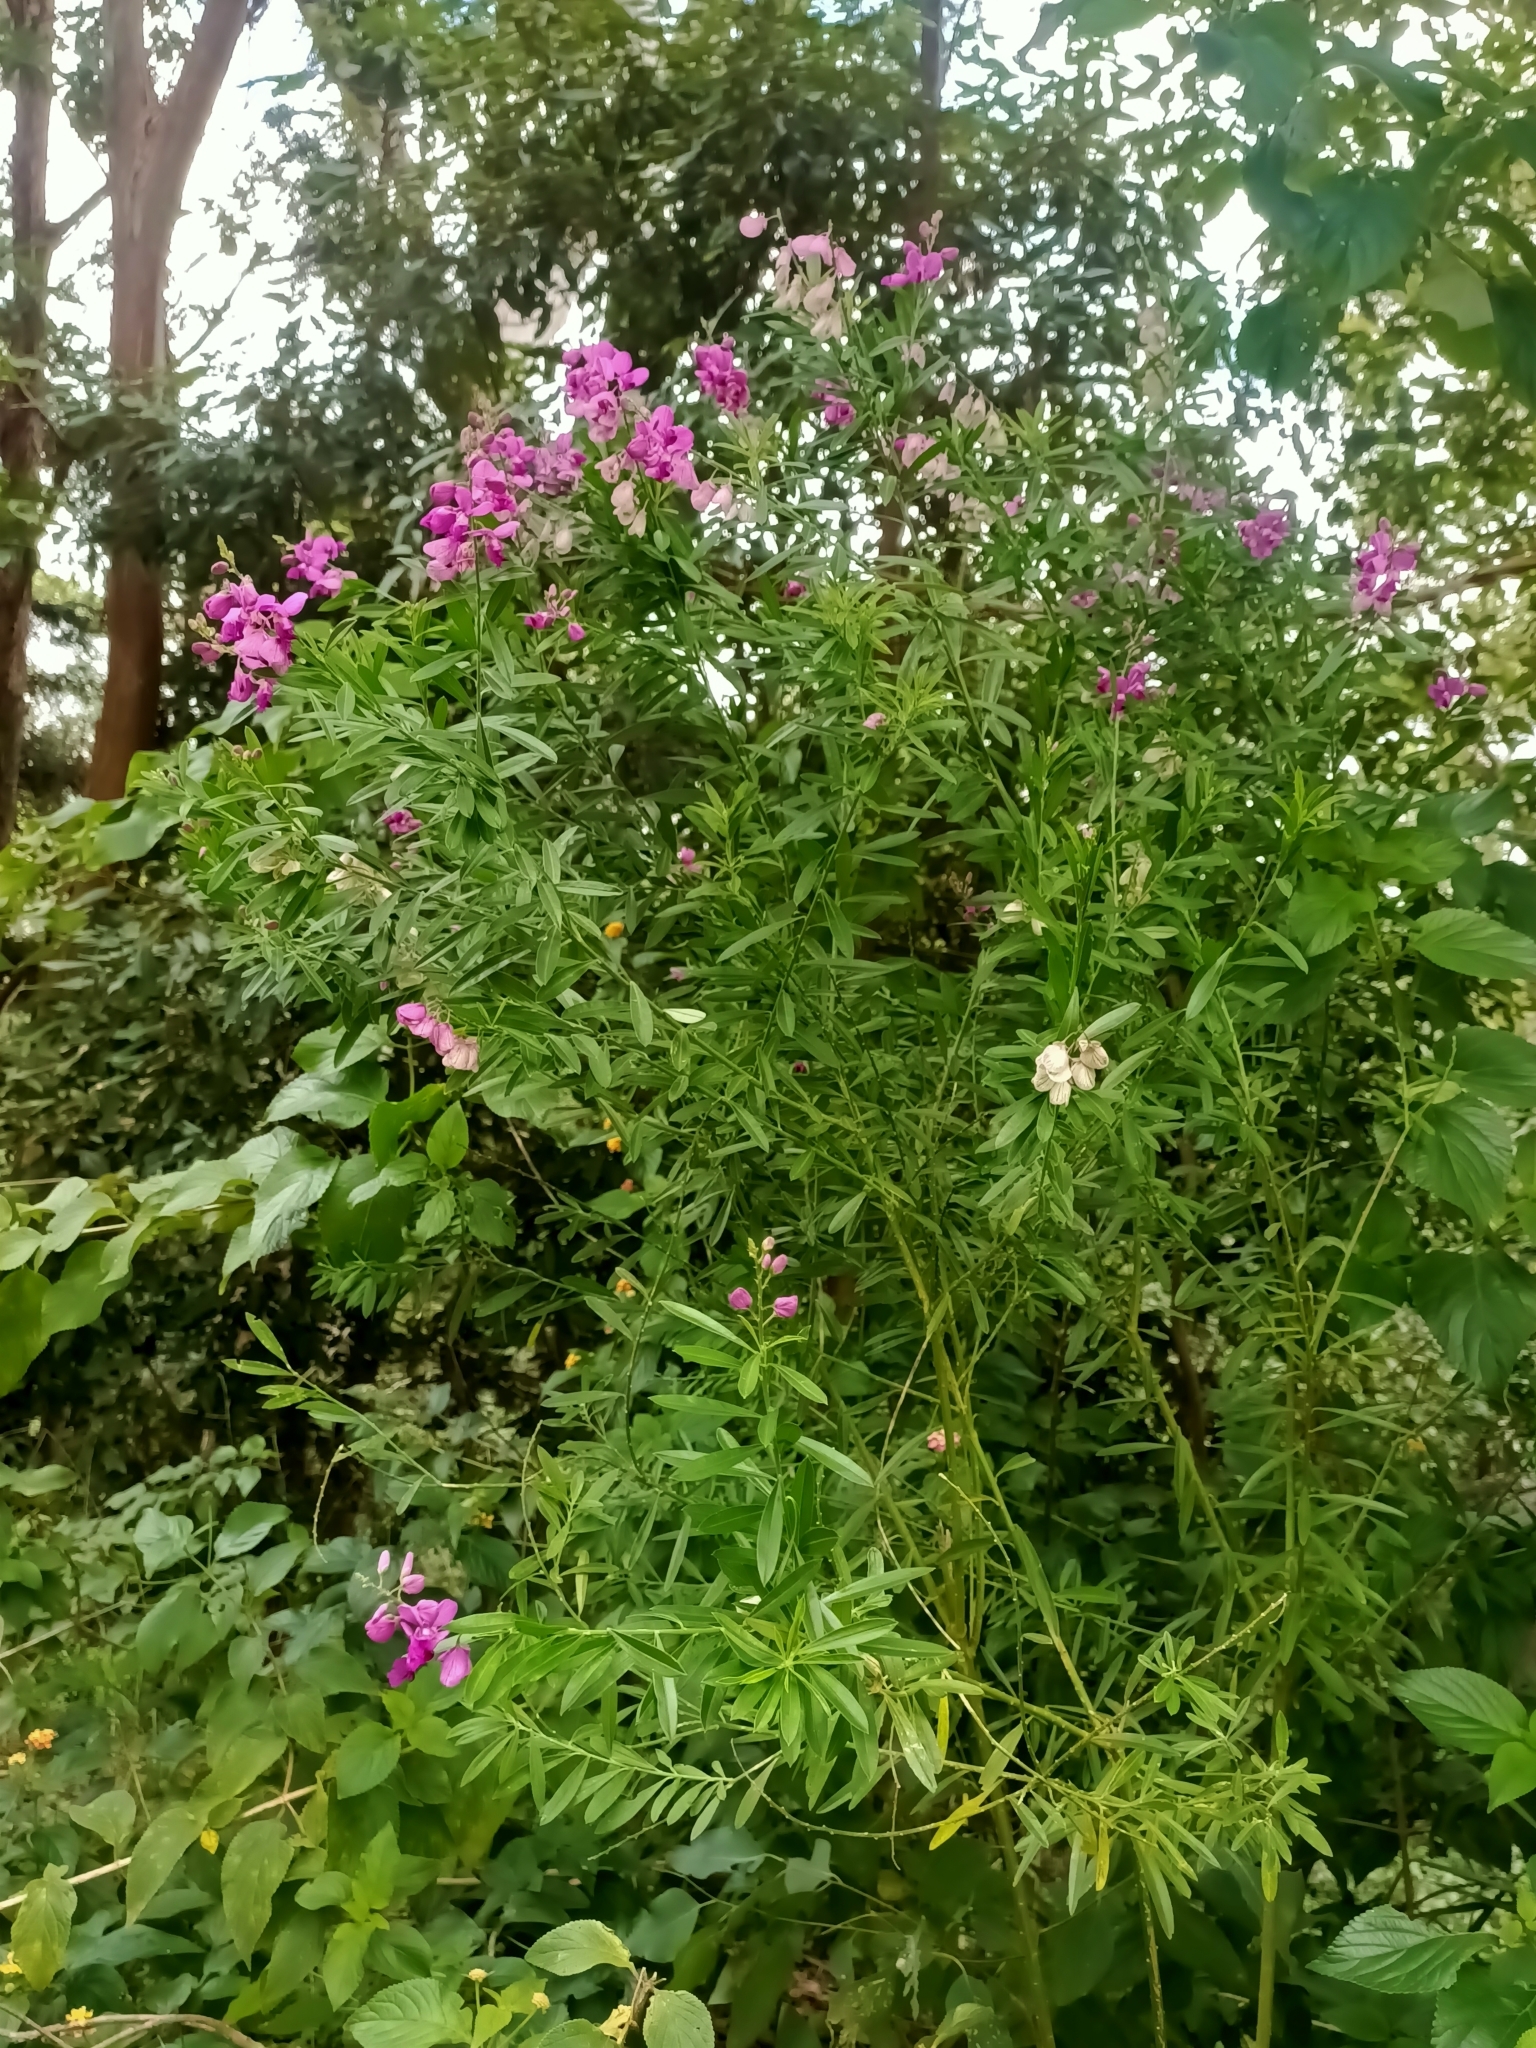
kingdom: Plantae
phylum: Tracheophyta
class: Magnoliopsida
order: Fabales
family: Polygalaceae
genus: Polygala
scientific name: Polygala virgata
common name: Milkwort
